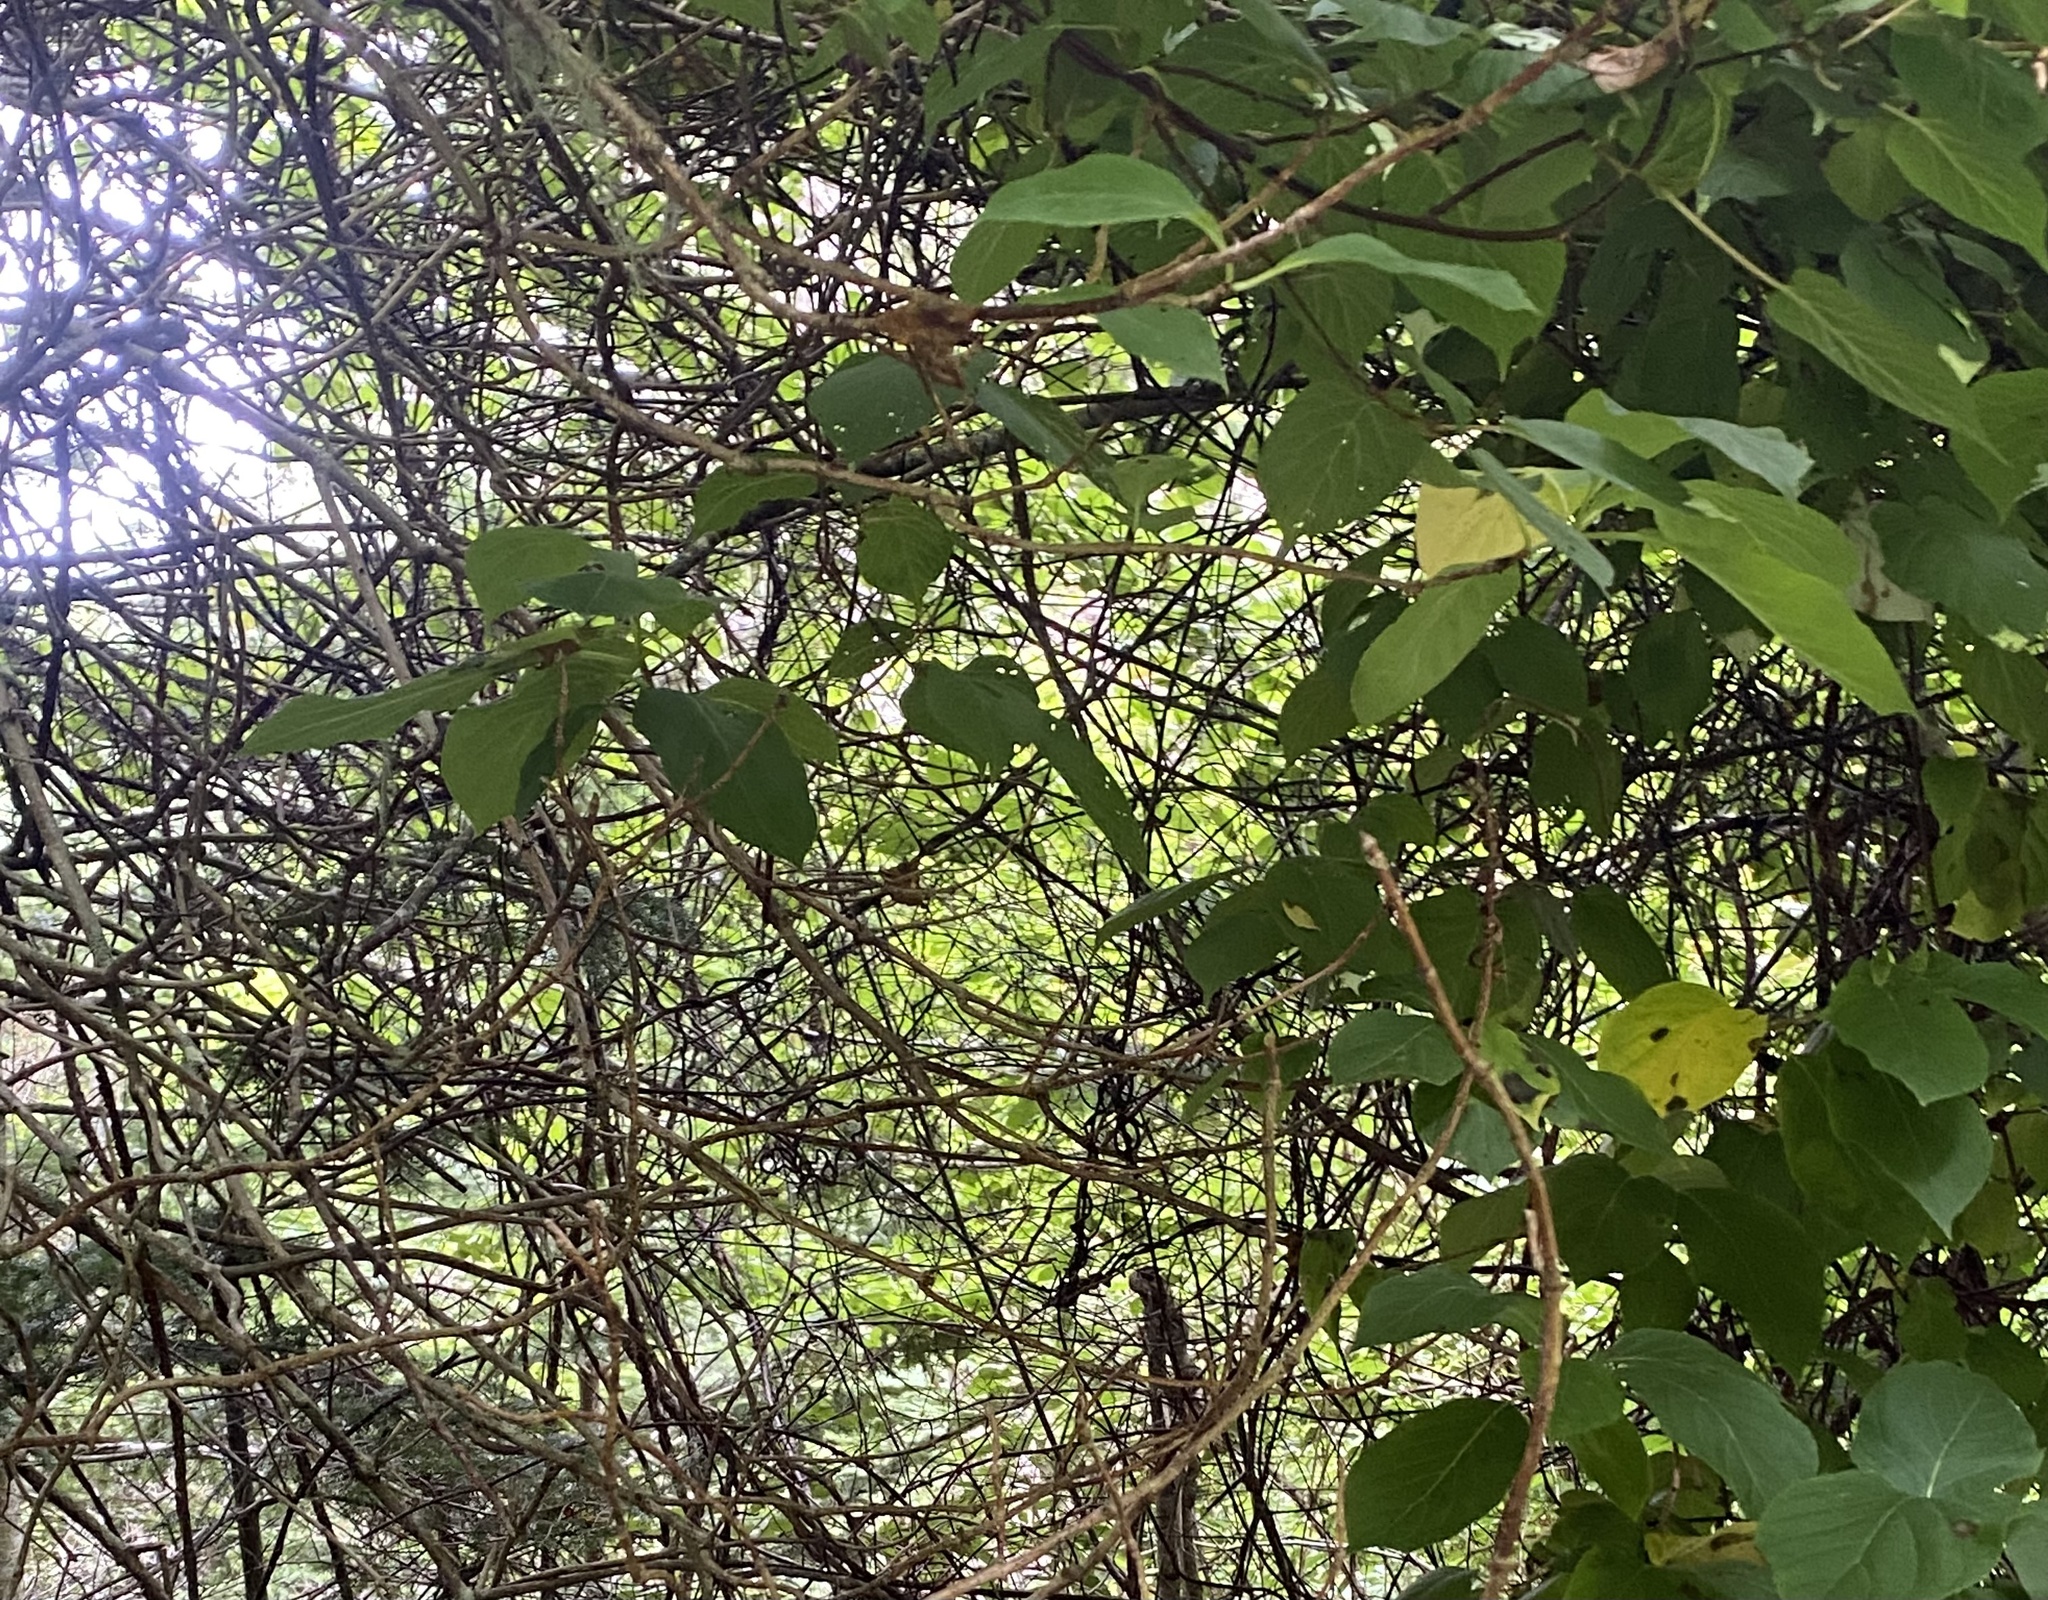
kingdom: Plantae
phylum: Tracheophyta
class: Magnoliopsida
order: Ericales
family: Actinidiaceae
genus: Actinidia
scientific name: Actinidia kolomikta
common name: Arctic beauty kiwi
